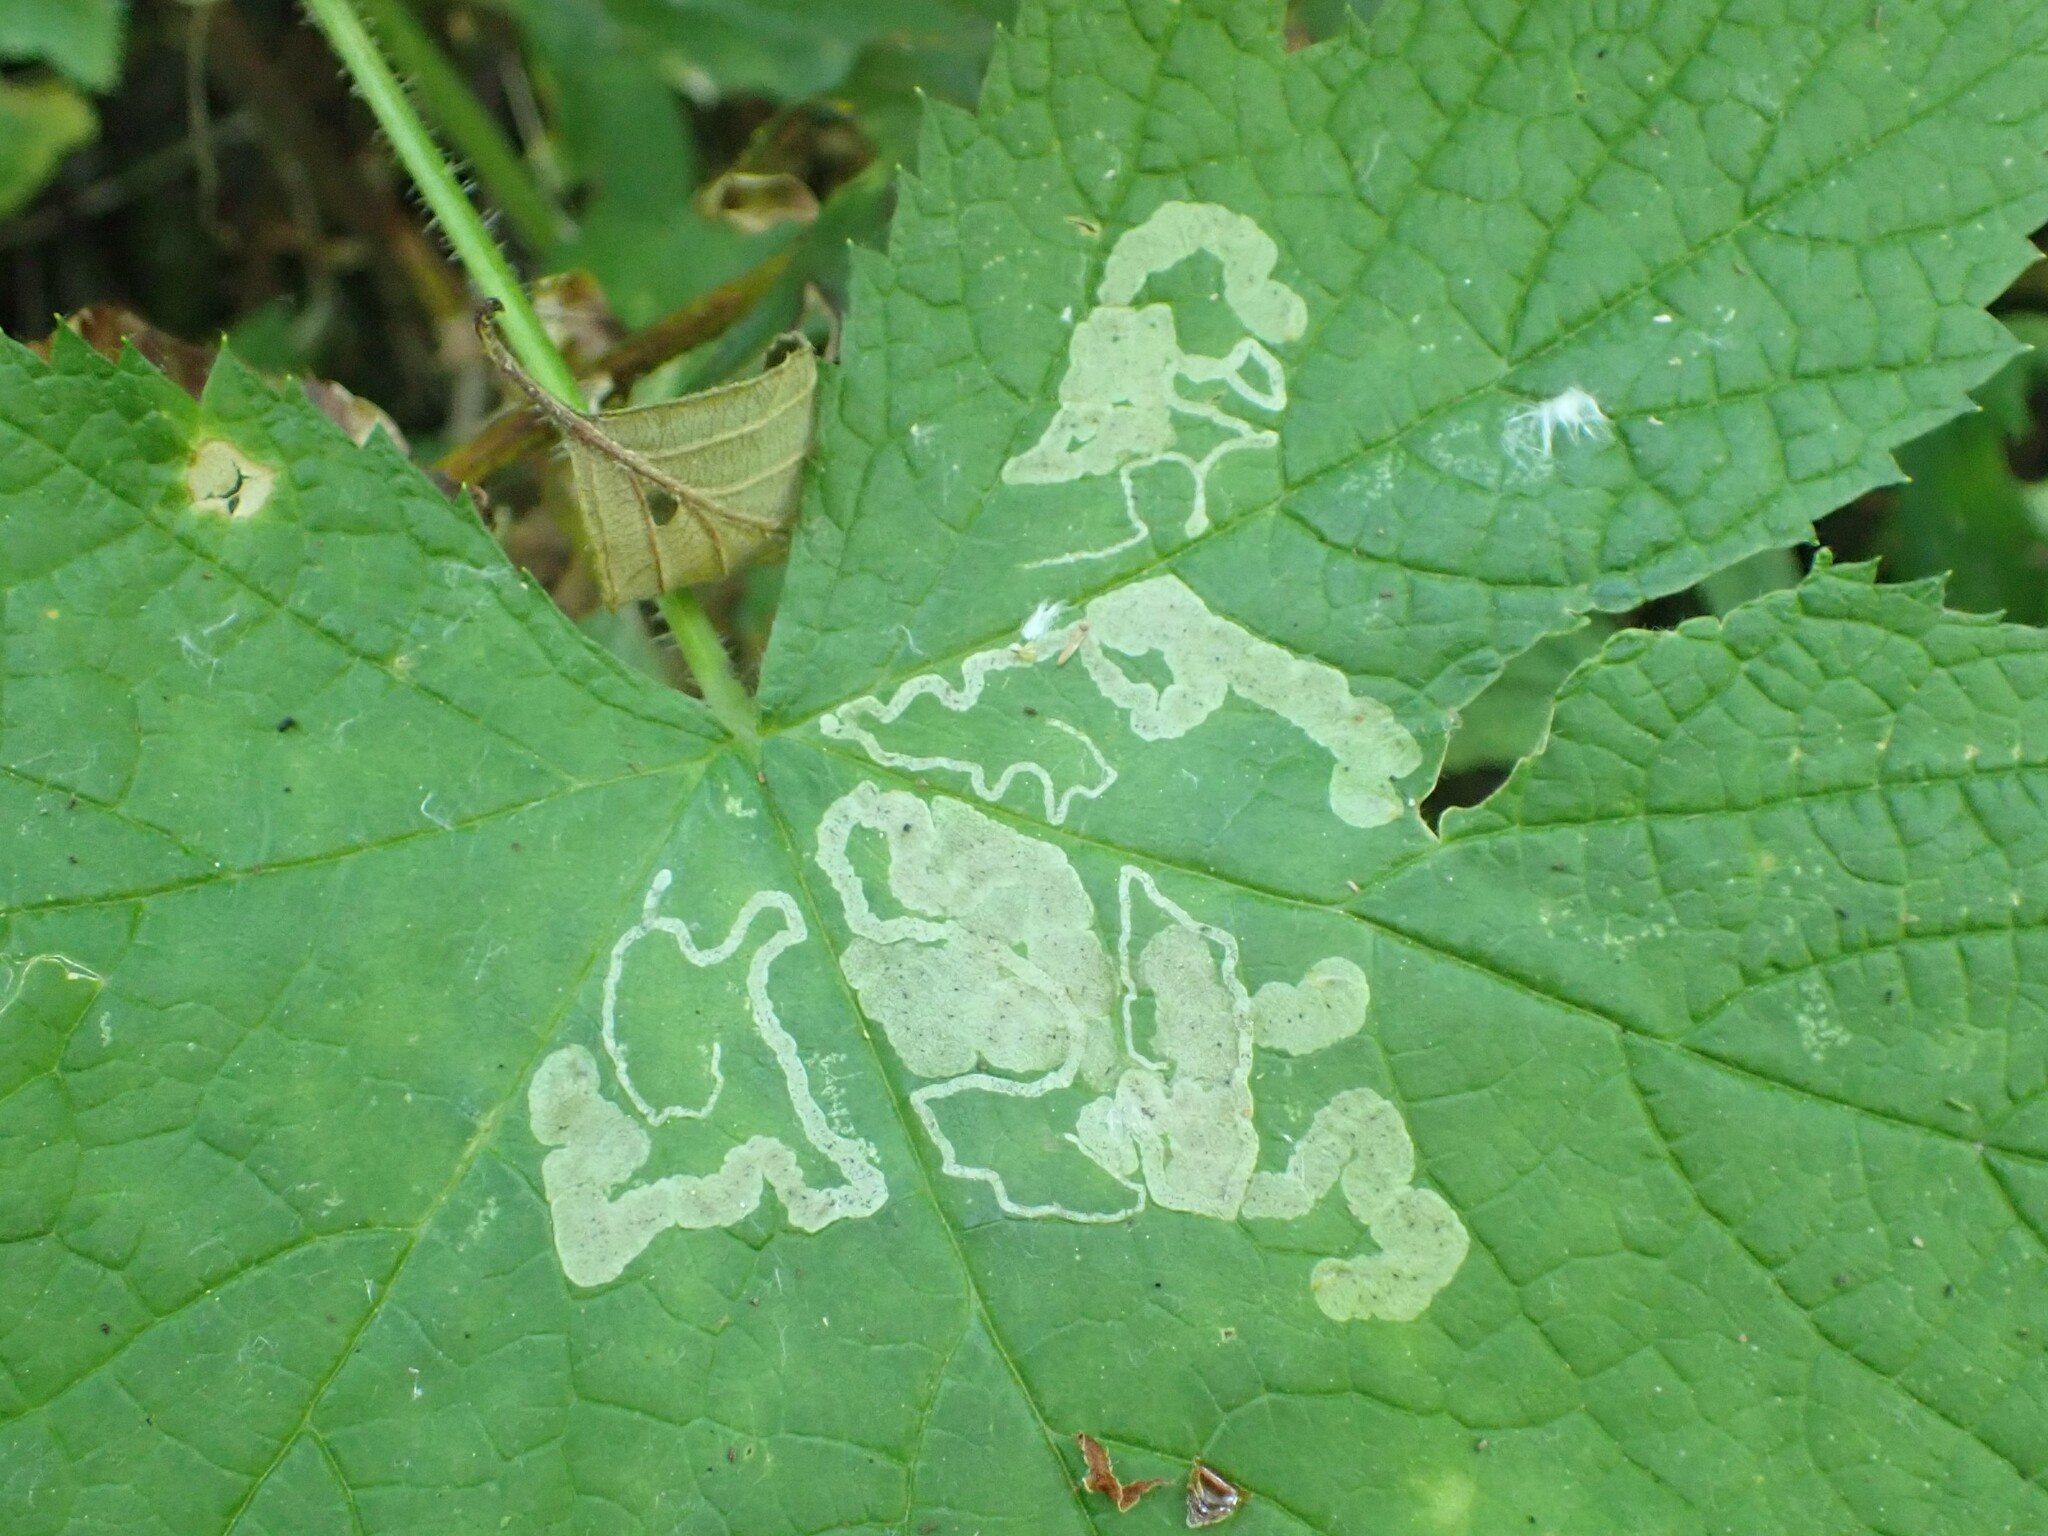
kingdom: Animalia
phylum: Arthropoda
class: Insecta
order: Diptera
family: Agromyzidae
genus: Agromyza
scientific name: Agromyza vockerothi
